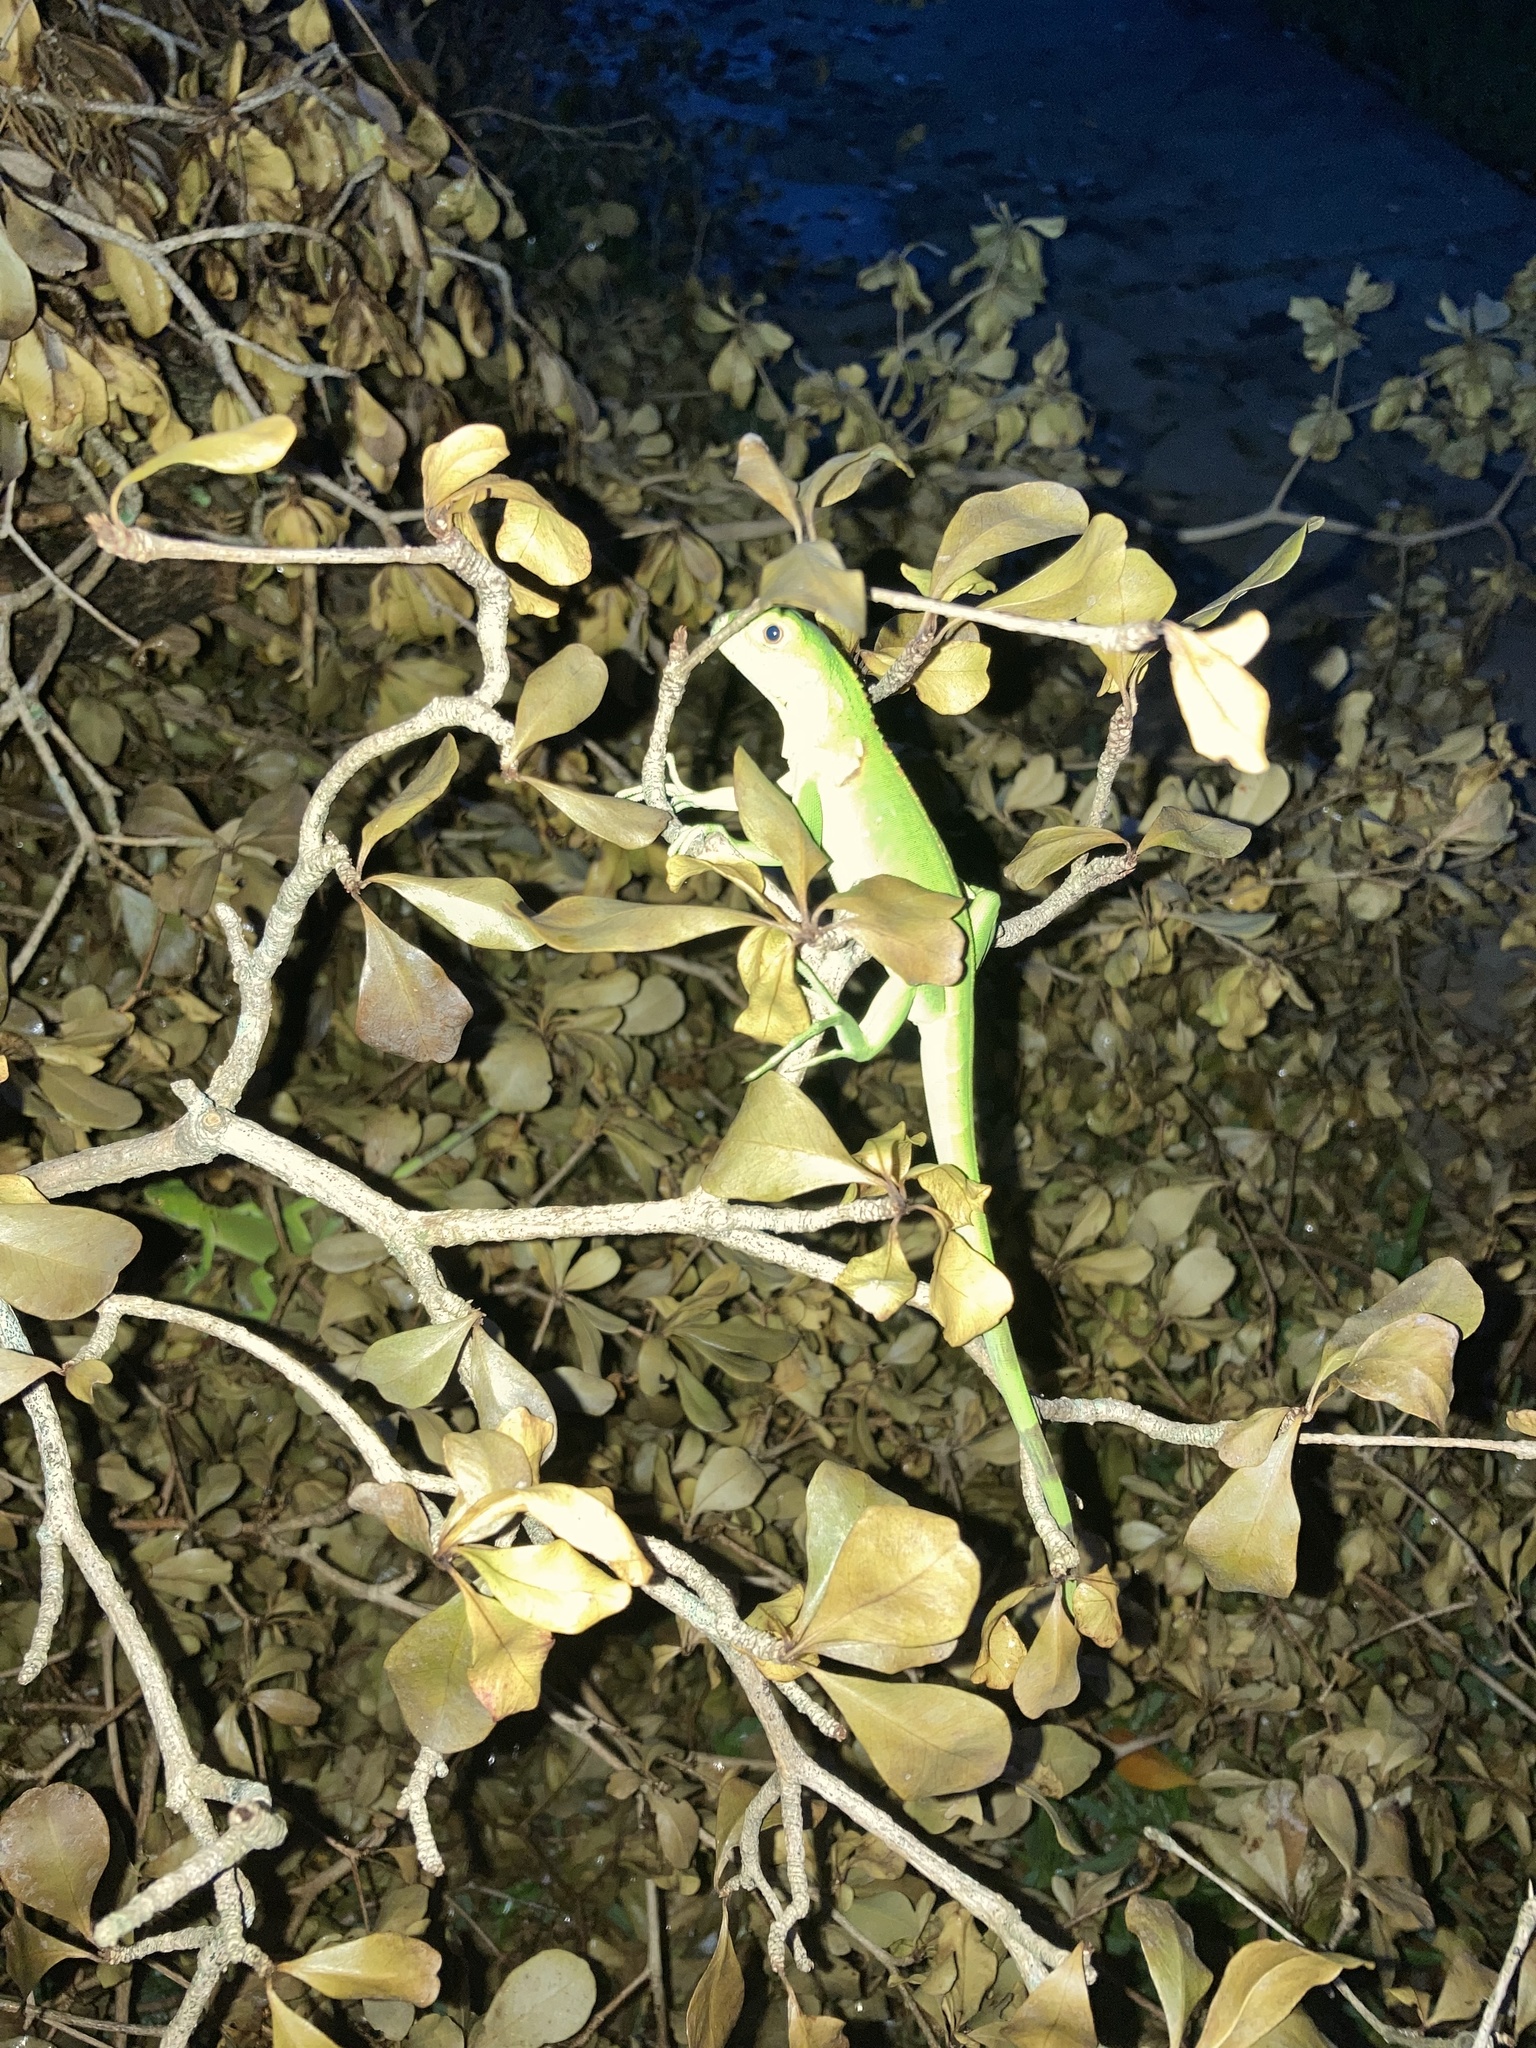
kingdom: Animalia
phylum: Chordata
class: Squamata
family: Iguanidae
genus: Iguana
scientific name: Iguana iguana
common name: Green iguana
